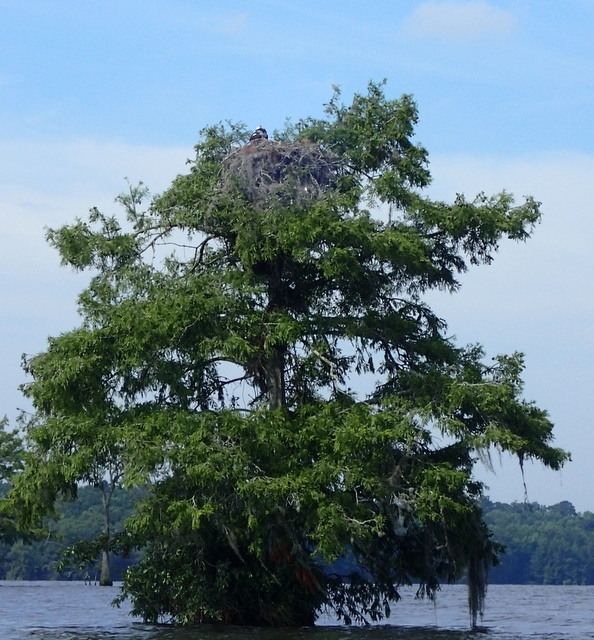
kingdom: Animalia
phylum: Chordata
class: Aves
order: Accipitriformes
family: Pandionidae
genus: Pandion
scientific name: Pandion haliaetus
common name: Osprey
